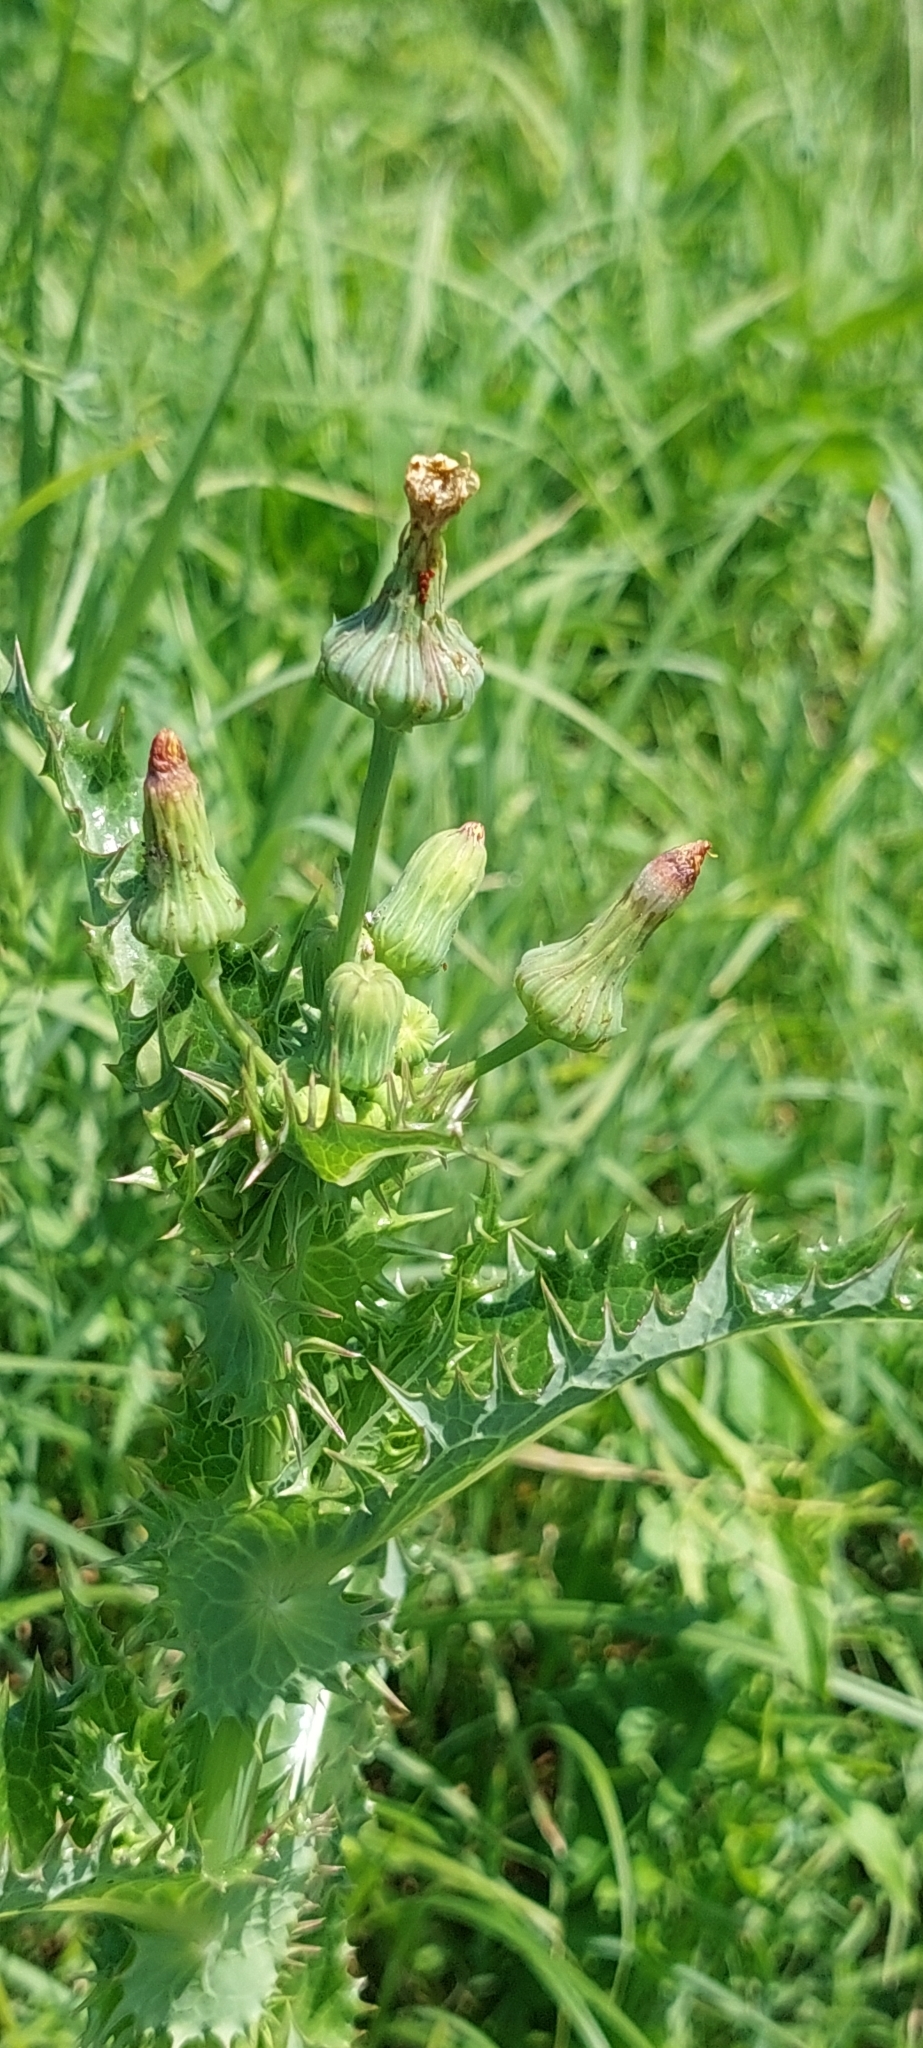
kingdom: Plantae
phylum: Tracheophyta
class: Magnoliopsida
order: Asterales
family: Asteraceae
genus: Sonchus
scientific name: Sonchus asper
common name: Prickly sow-thistle
